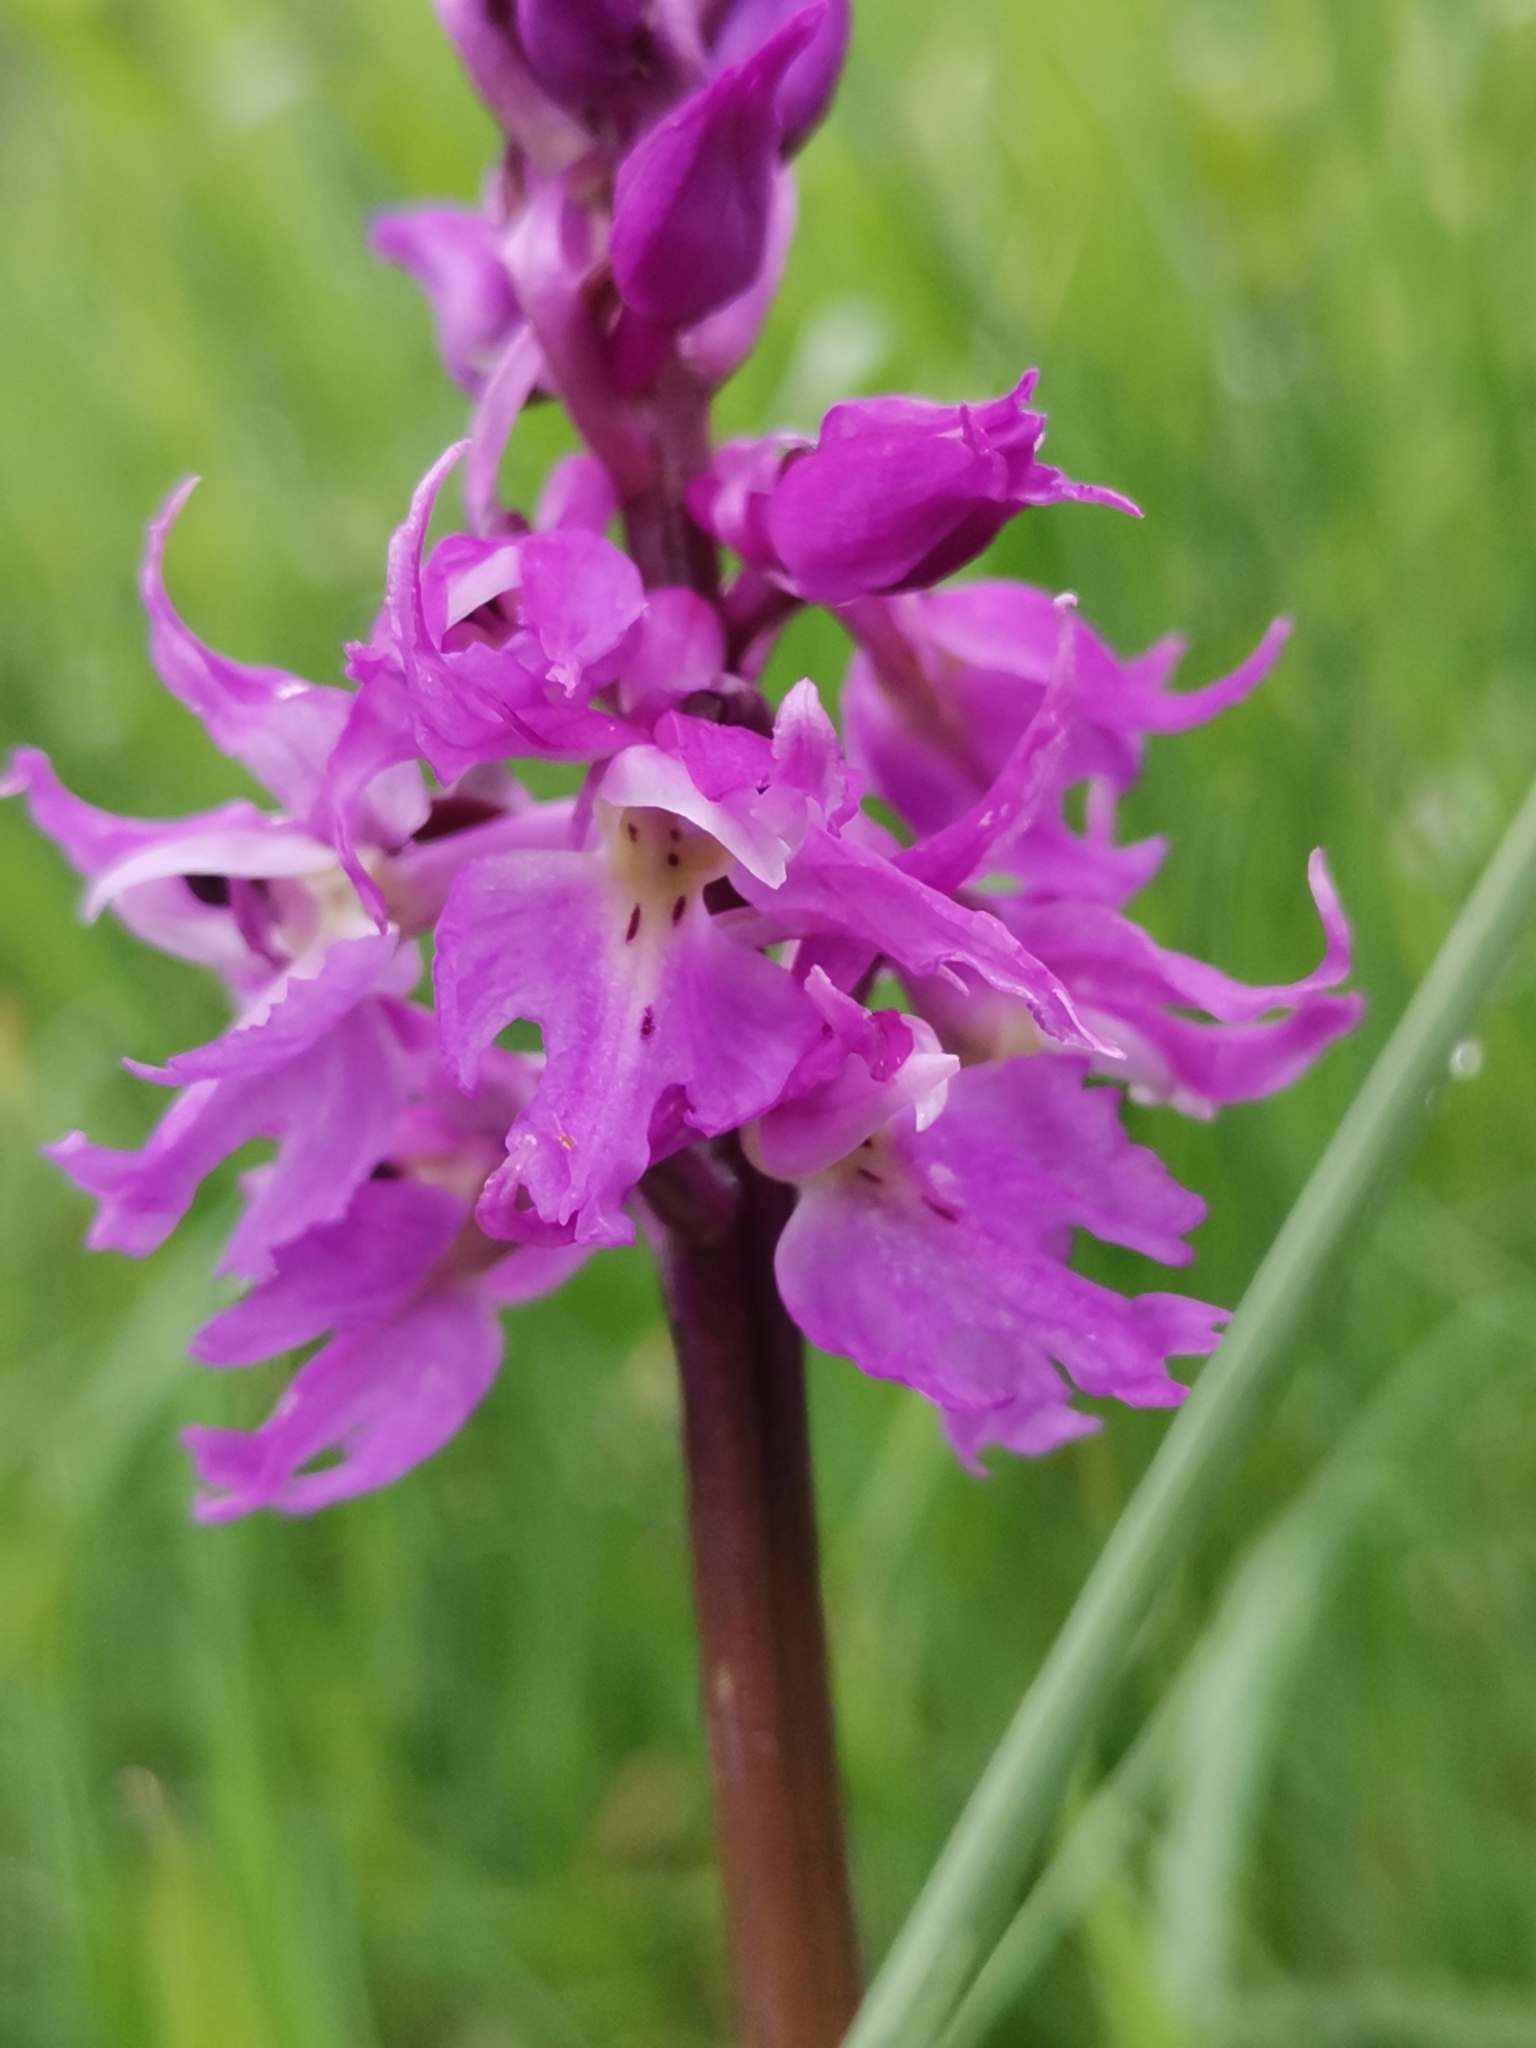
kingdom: Plantae
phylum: Tracheophyta
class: Liliopsida
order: Asparagales
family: Orchidaceae
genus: Orchis
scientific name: Orchis mascula
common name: Early-purple orchid
